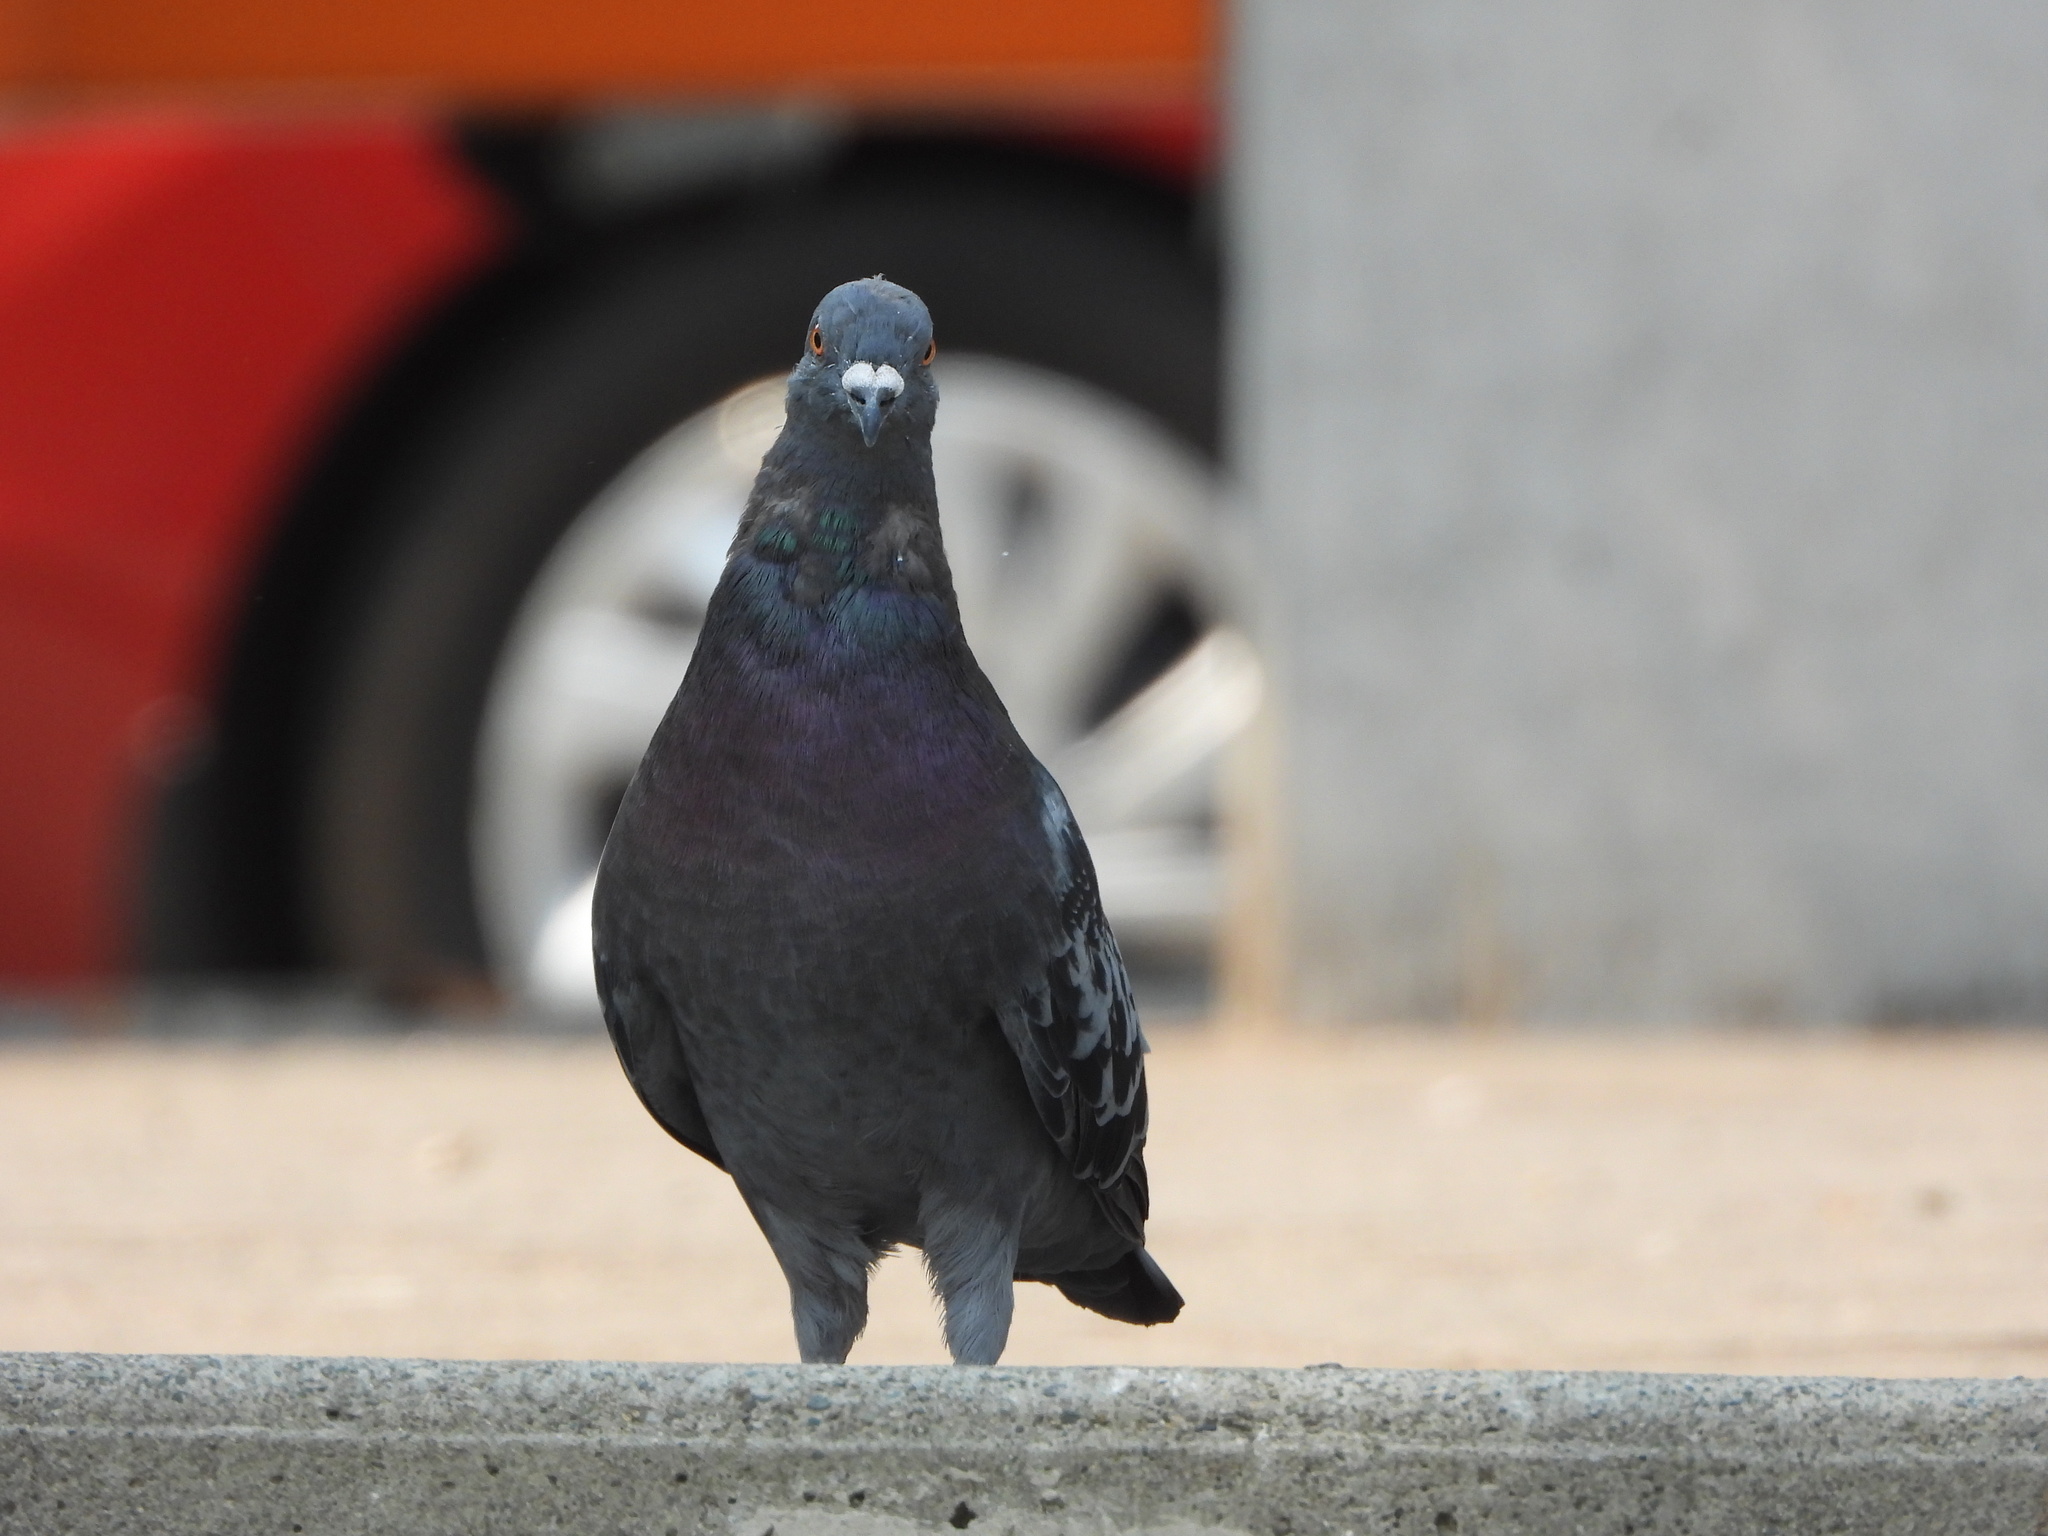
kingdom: Animalia
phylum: Chordata
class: Aves
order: Columbiformes
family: Columbidae
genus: Columba
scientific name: Columba livia
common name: Rock pigeon
